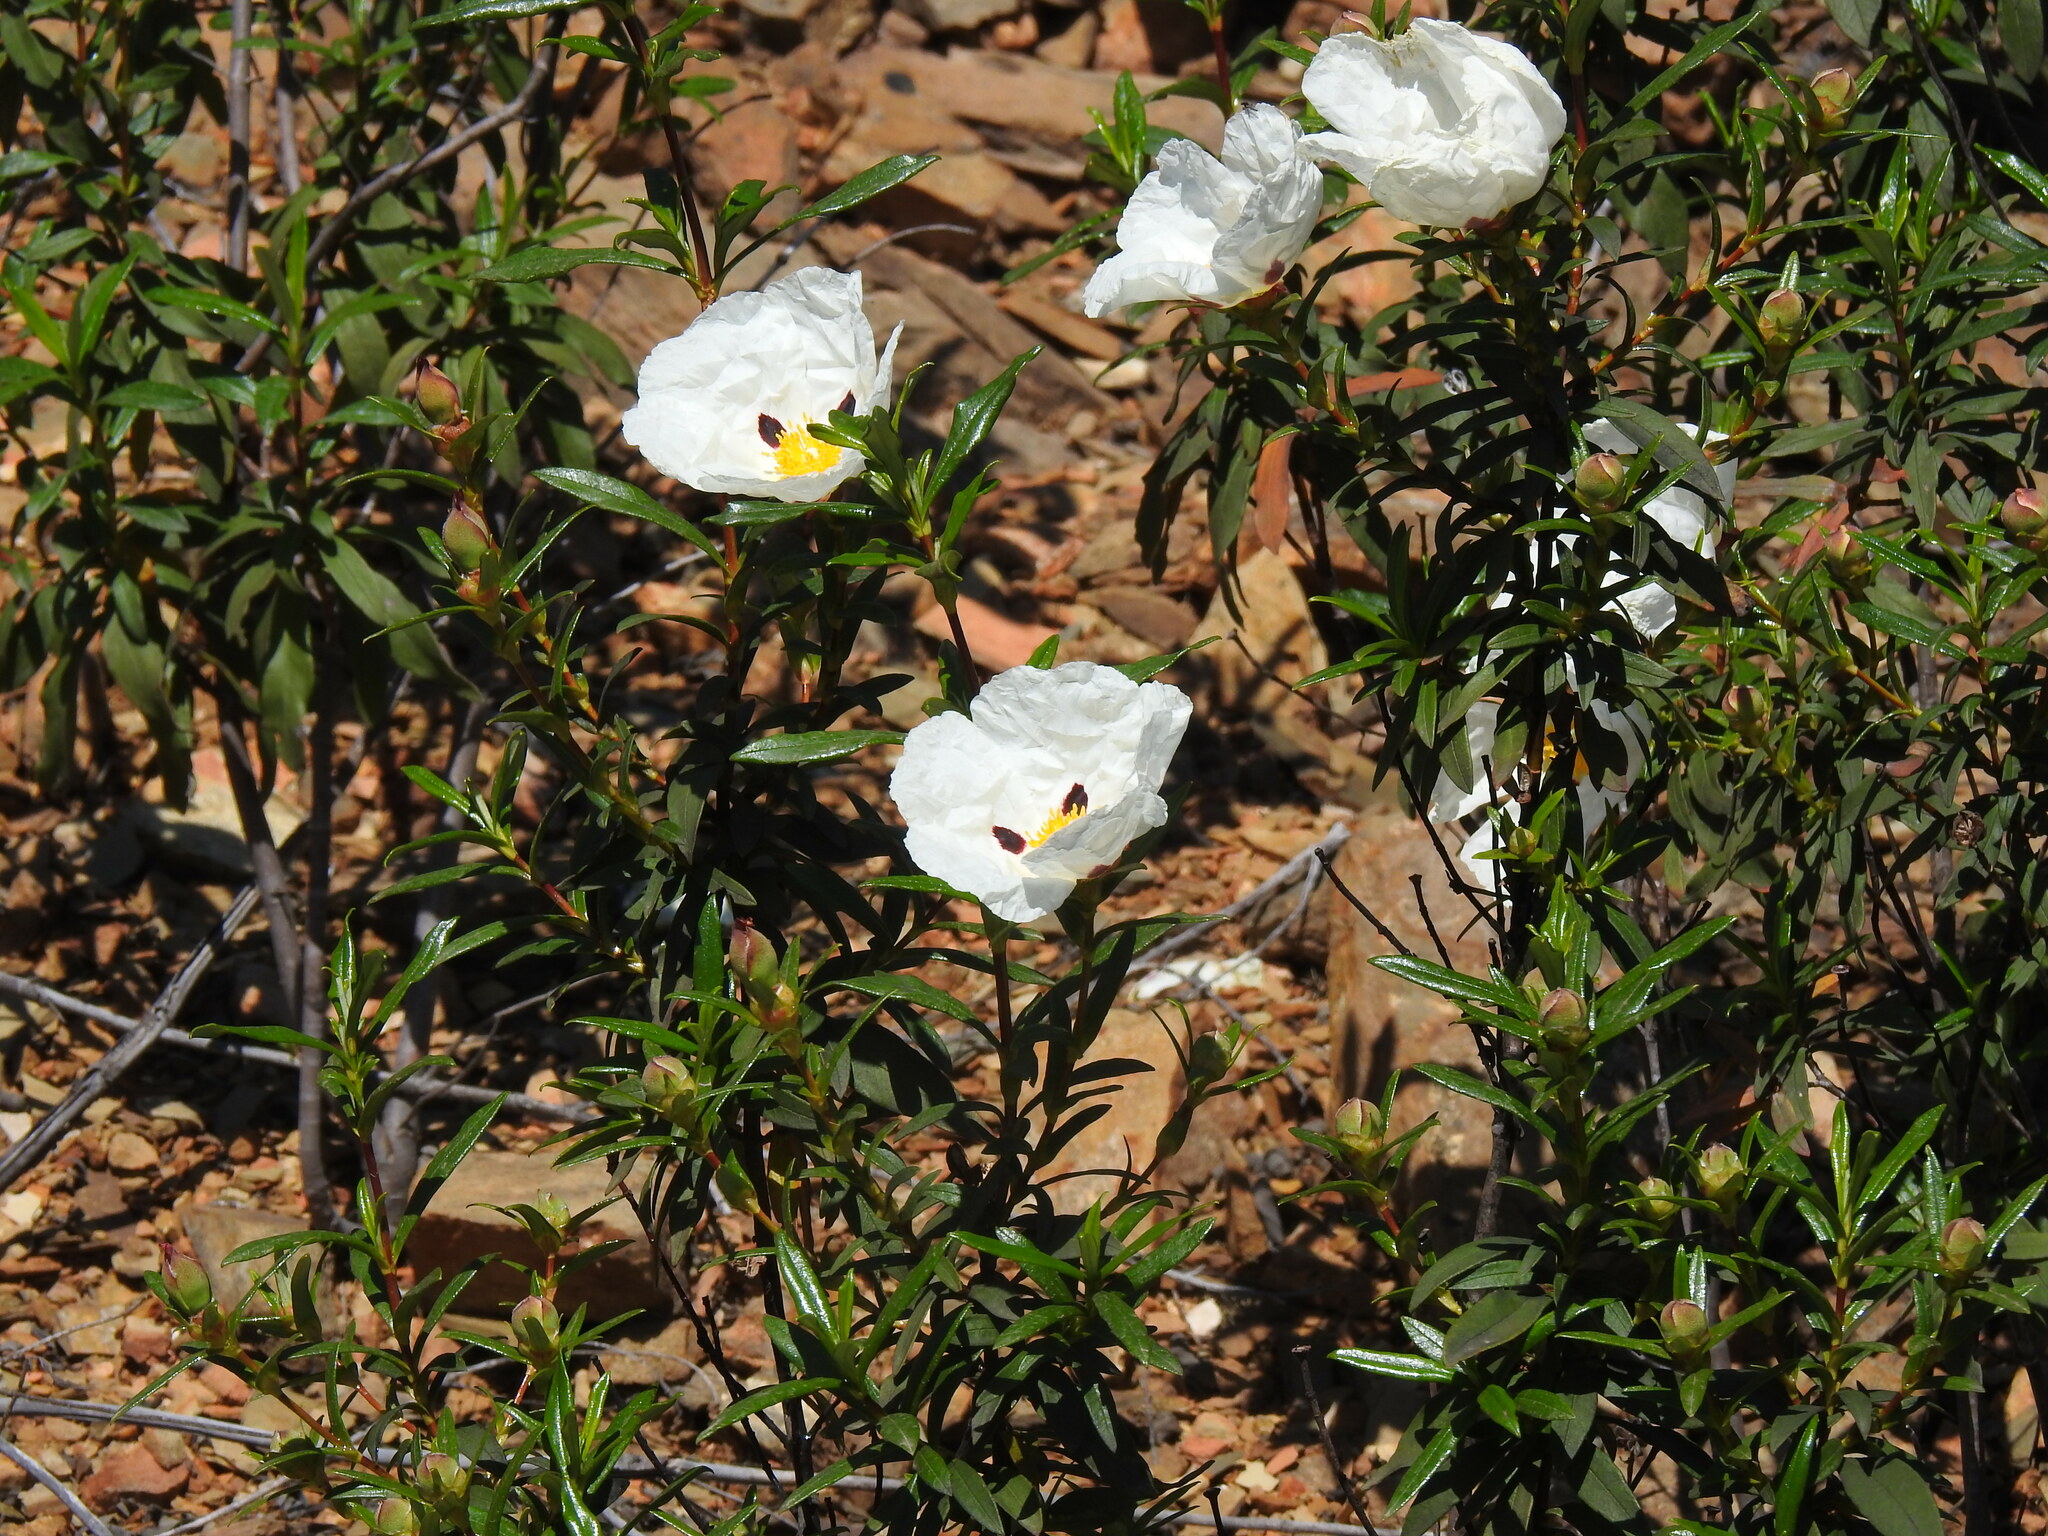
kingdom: Plantae
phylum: Tracheophyta
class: Magnoliopsida
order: Malvales
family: Cistaceae
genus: Cistus
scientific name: Cistus ladanifer
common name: Common gum cistus
